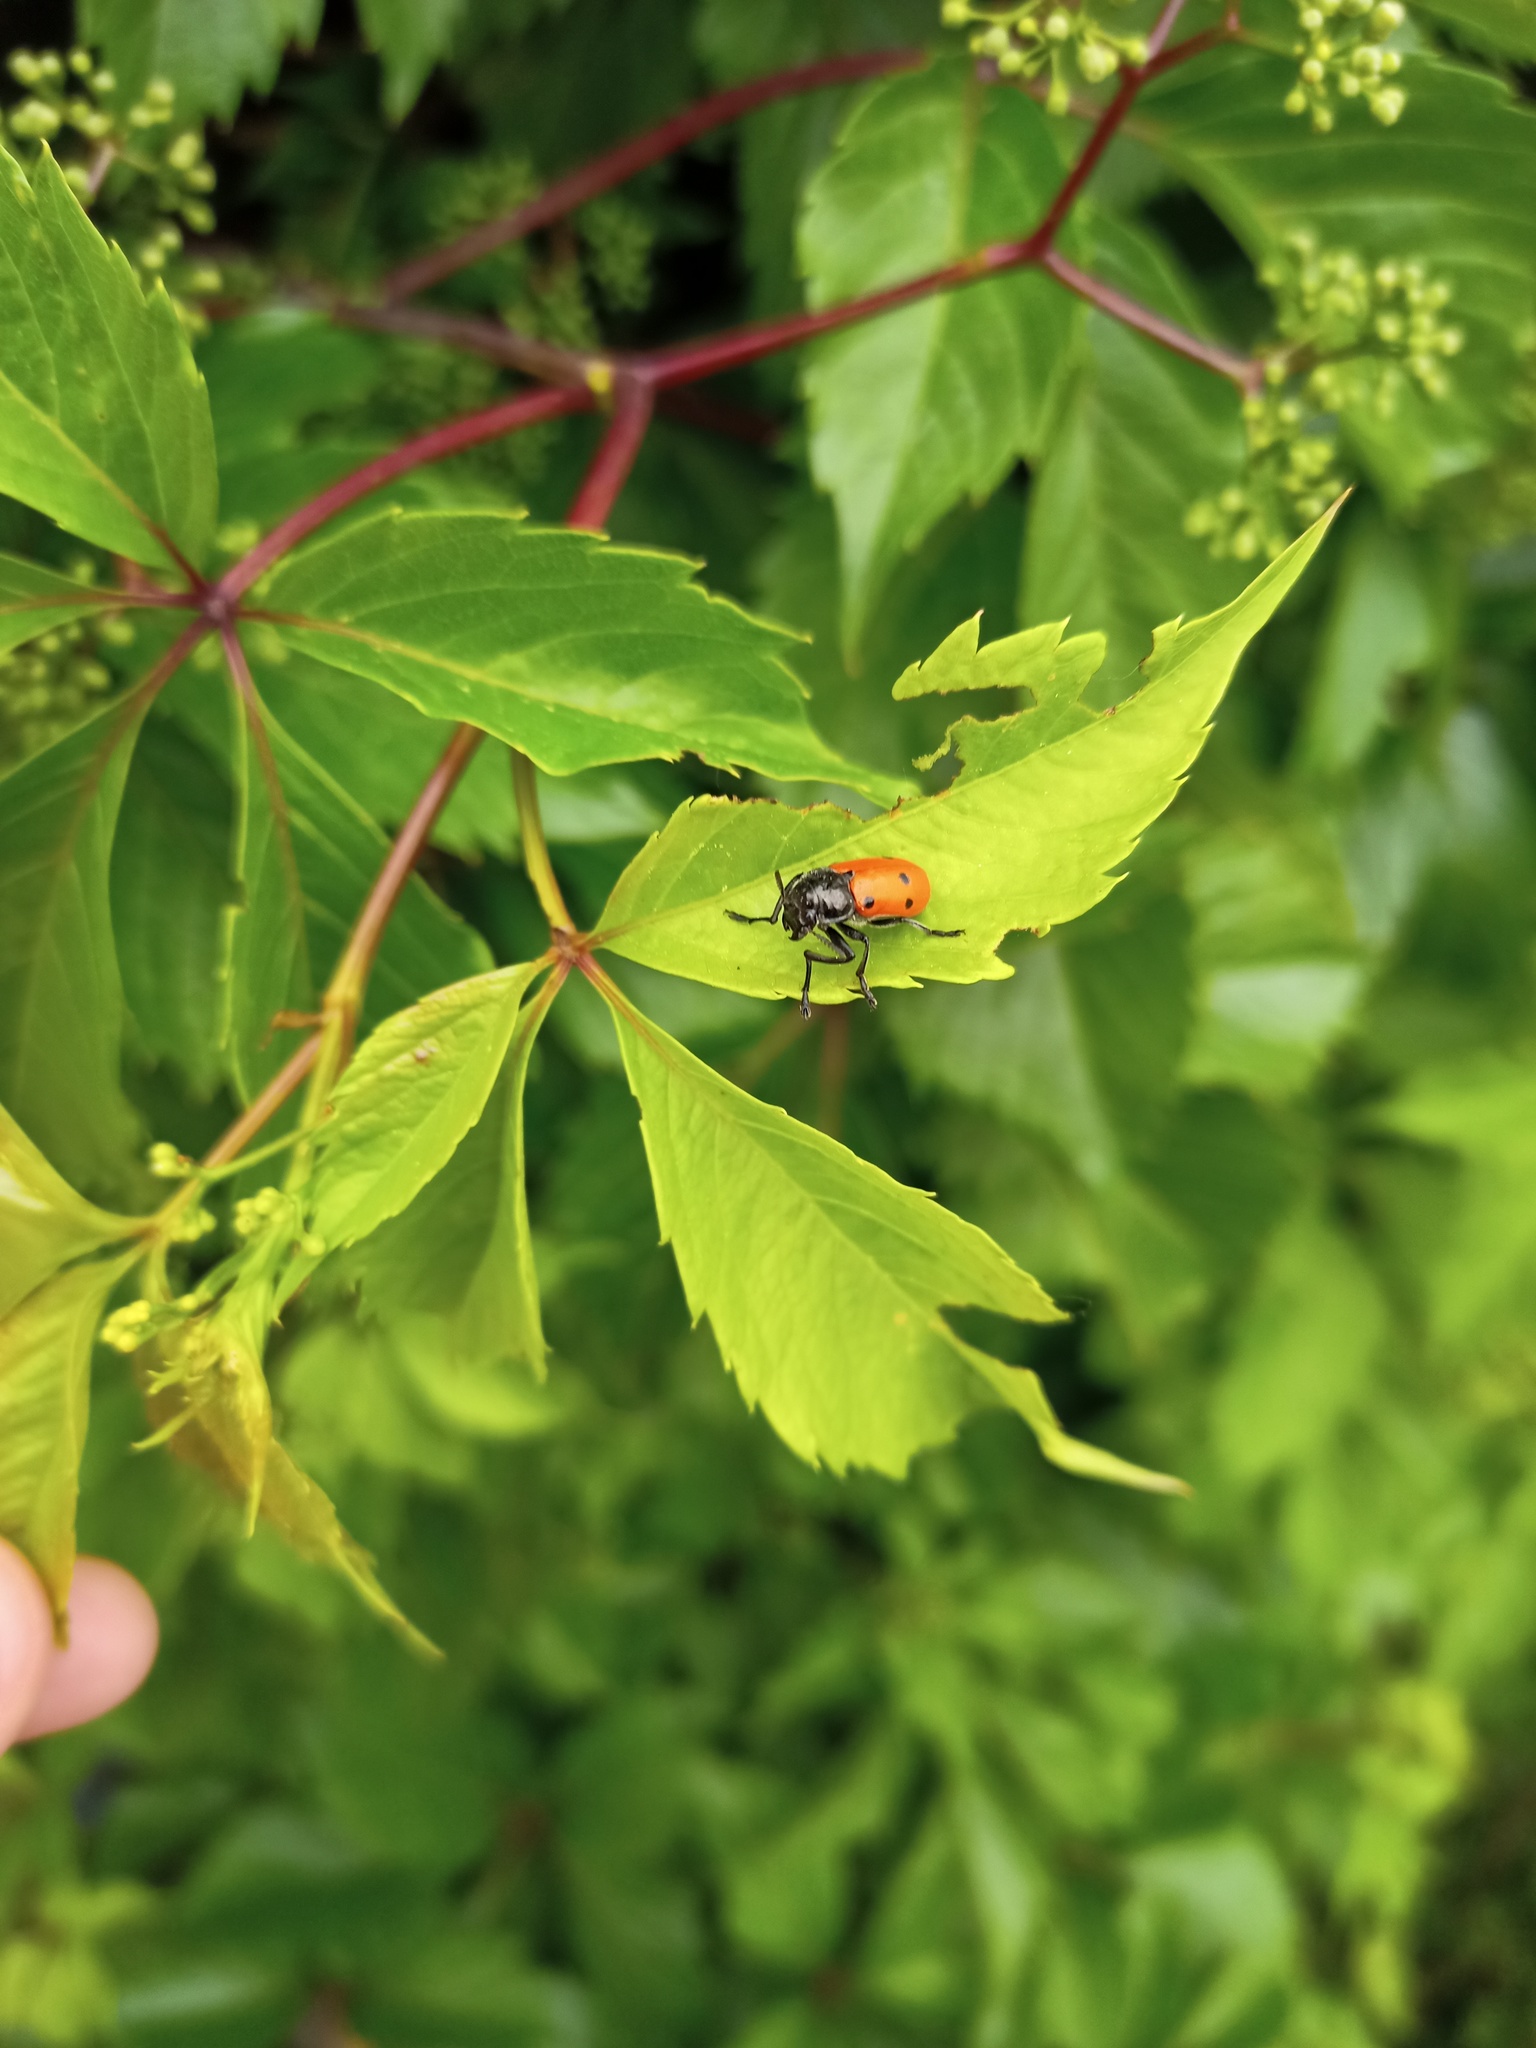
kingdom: Animalia
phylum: Arthropoda
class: Insecta
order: Coleoptera
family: Chrysomelidae
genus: Lachnaia
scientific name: Lachnaia paradoxa
